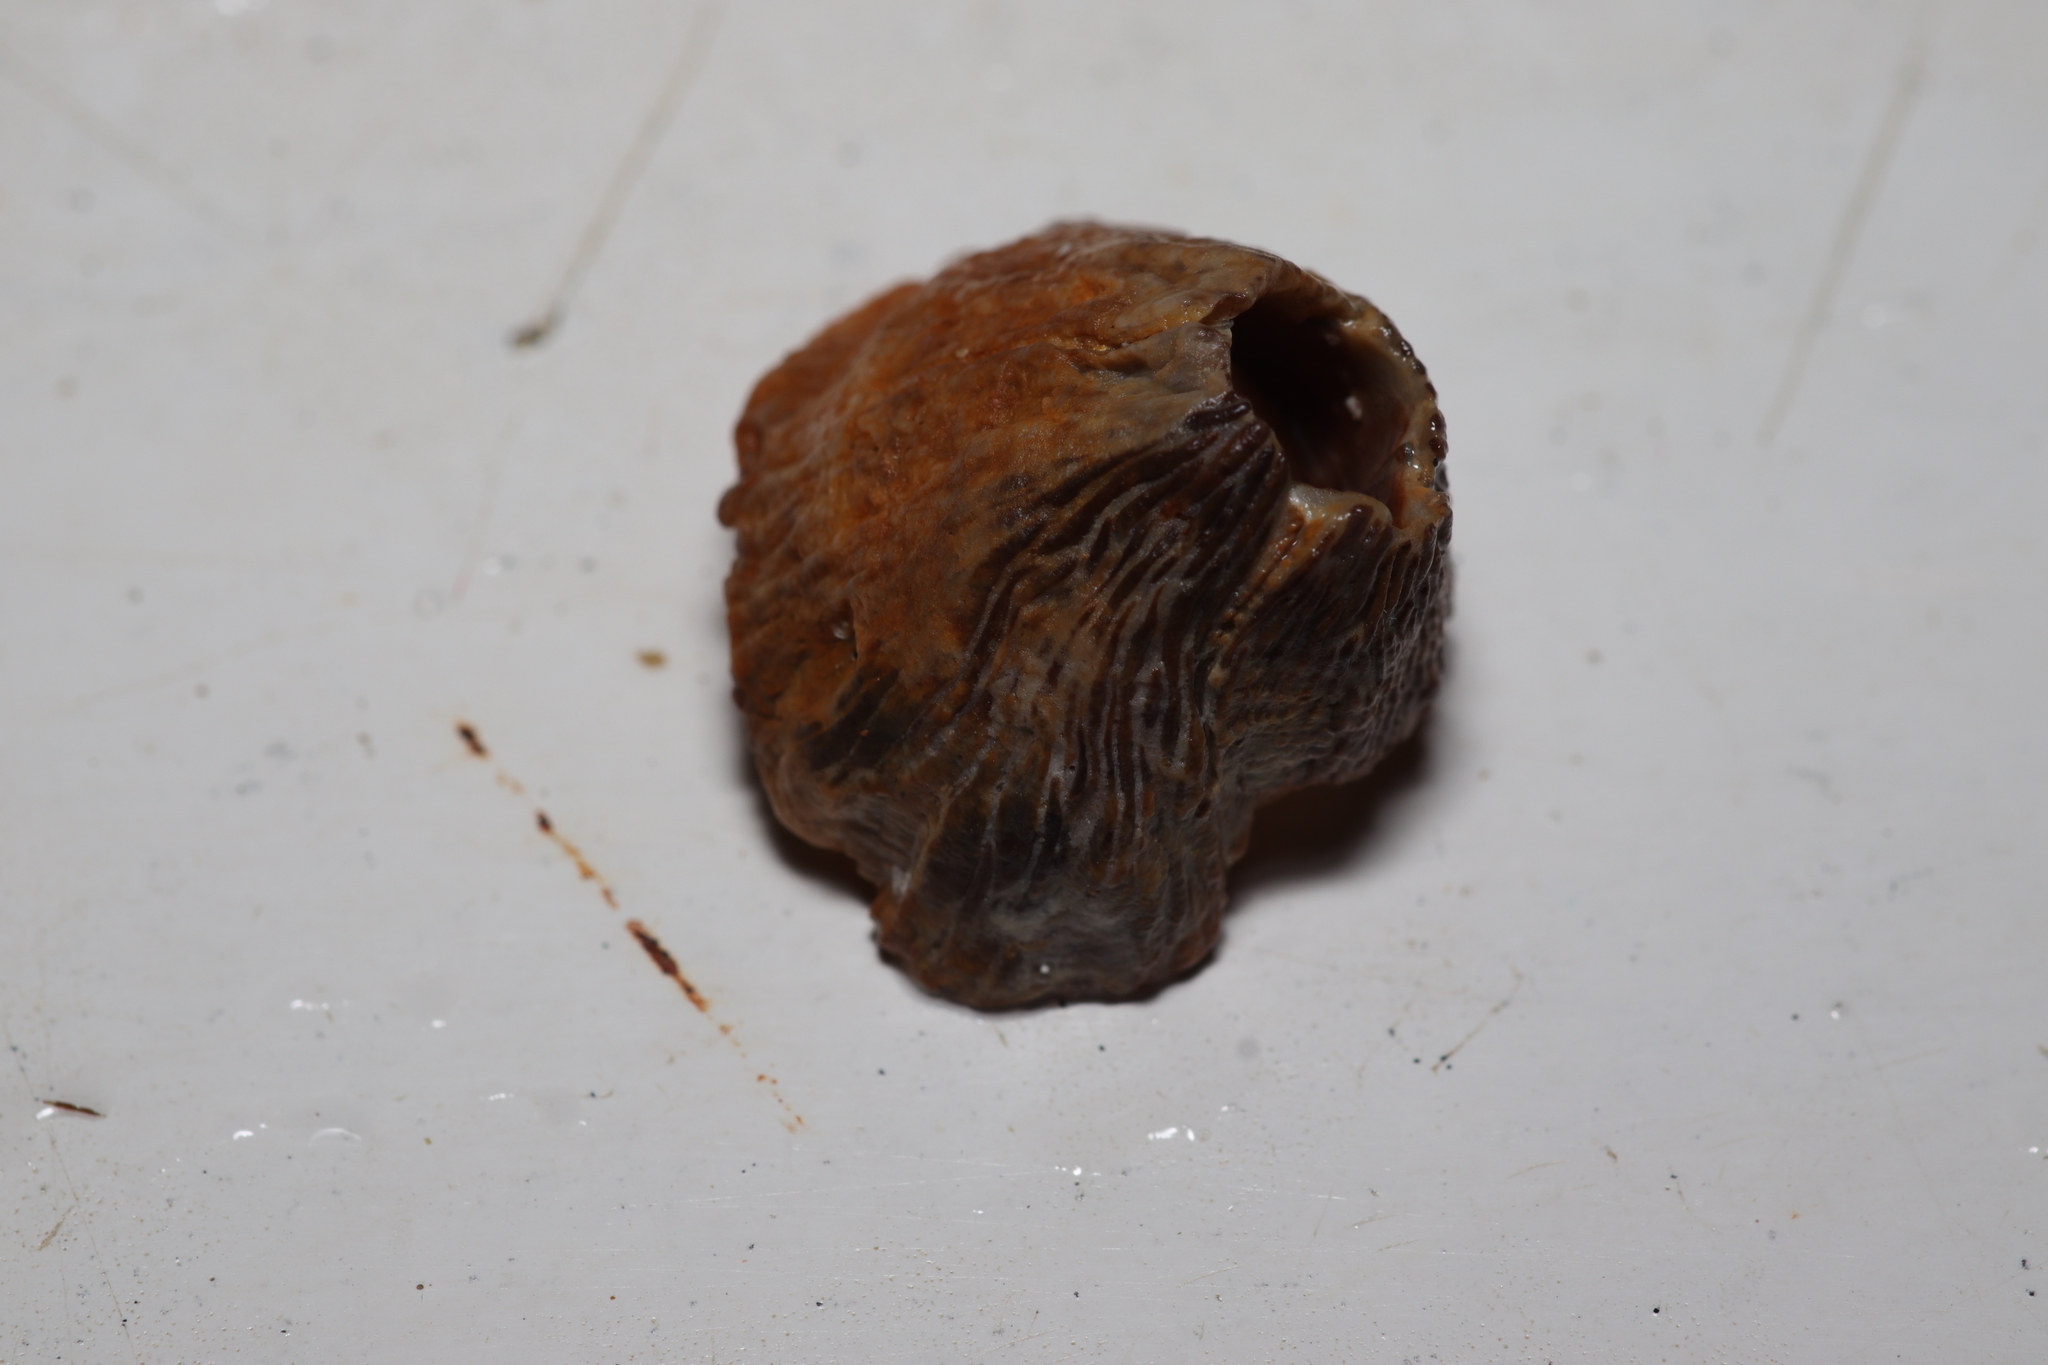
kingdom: Animalia
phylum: Arthropoda
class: Maxillopoda
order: Sessilia
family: Tetraclitidae
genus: Tetraclita
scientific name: Tetraclita stalactifera
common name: Ribbed barnacle
